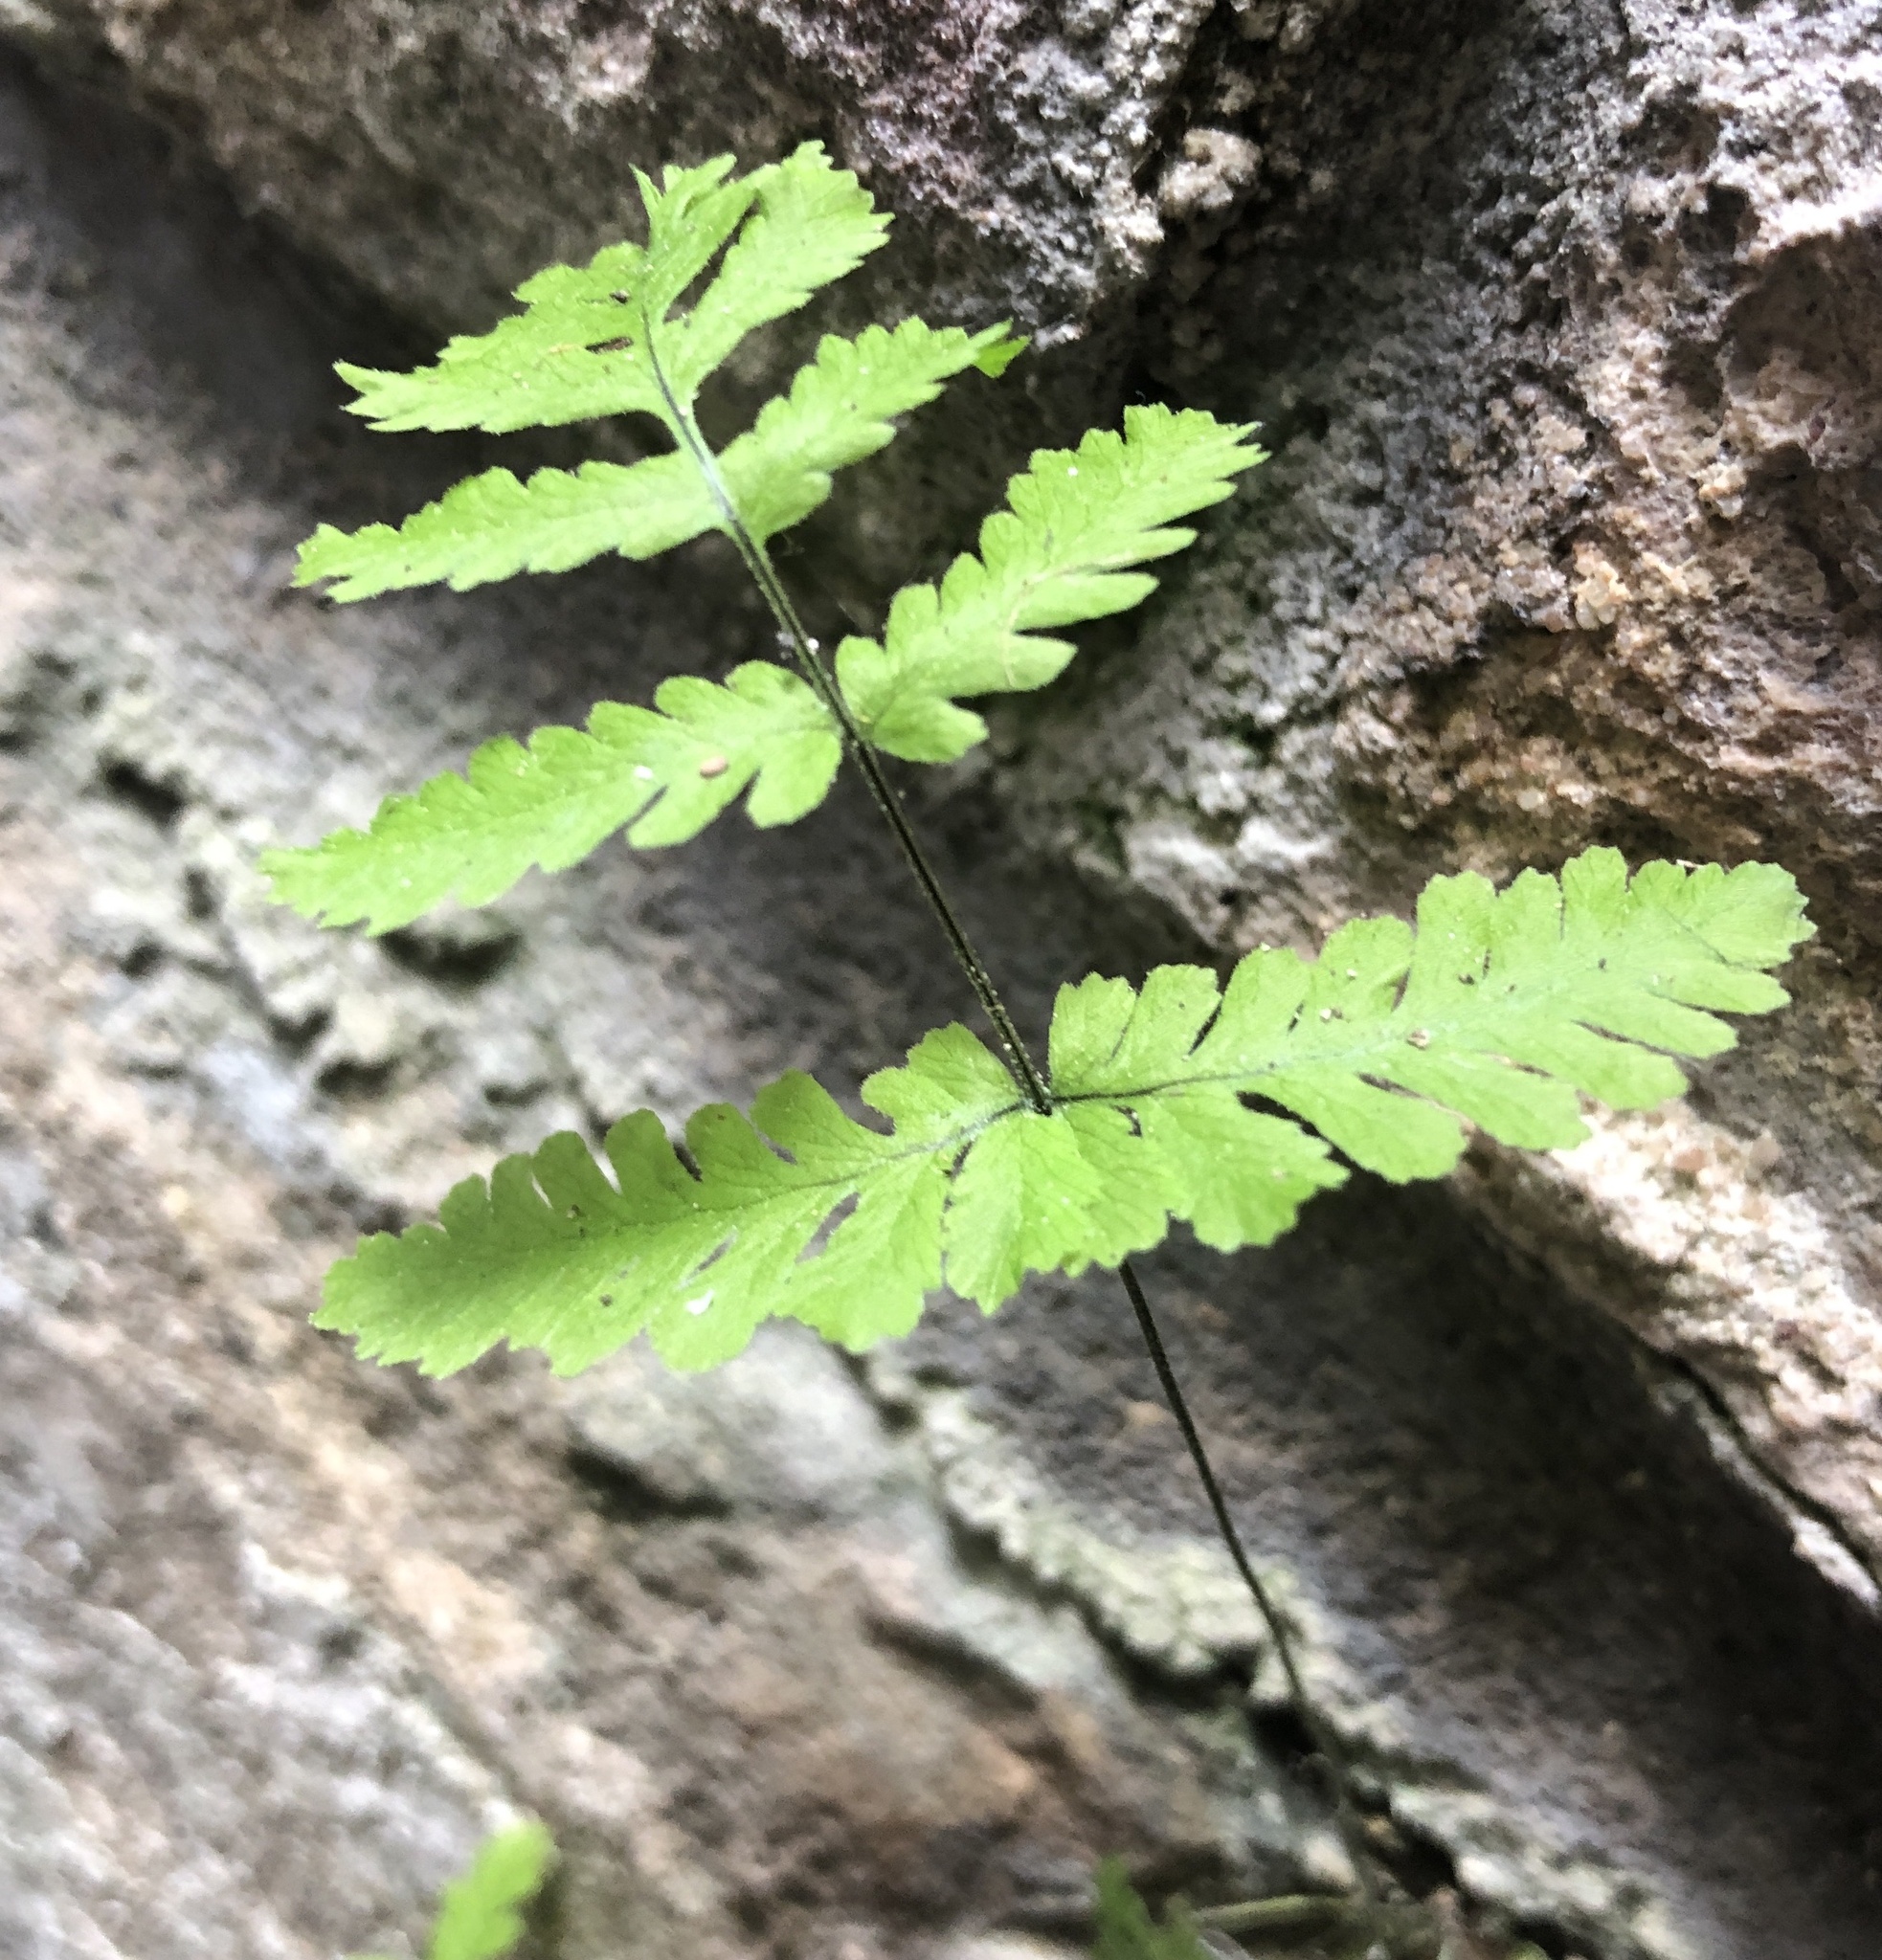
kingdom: Plantae
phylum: Tracheophyta
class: Polypodiopsida
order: Polypodiales
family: Cystopteridaceae
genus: Gymnocarpium
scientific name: Gymnocarpium dryopteris
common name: Oak fern
